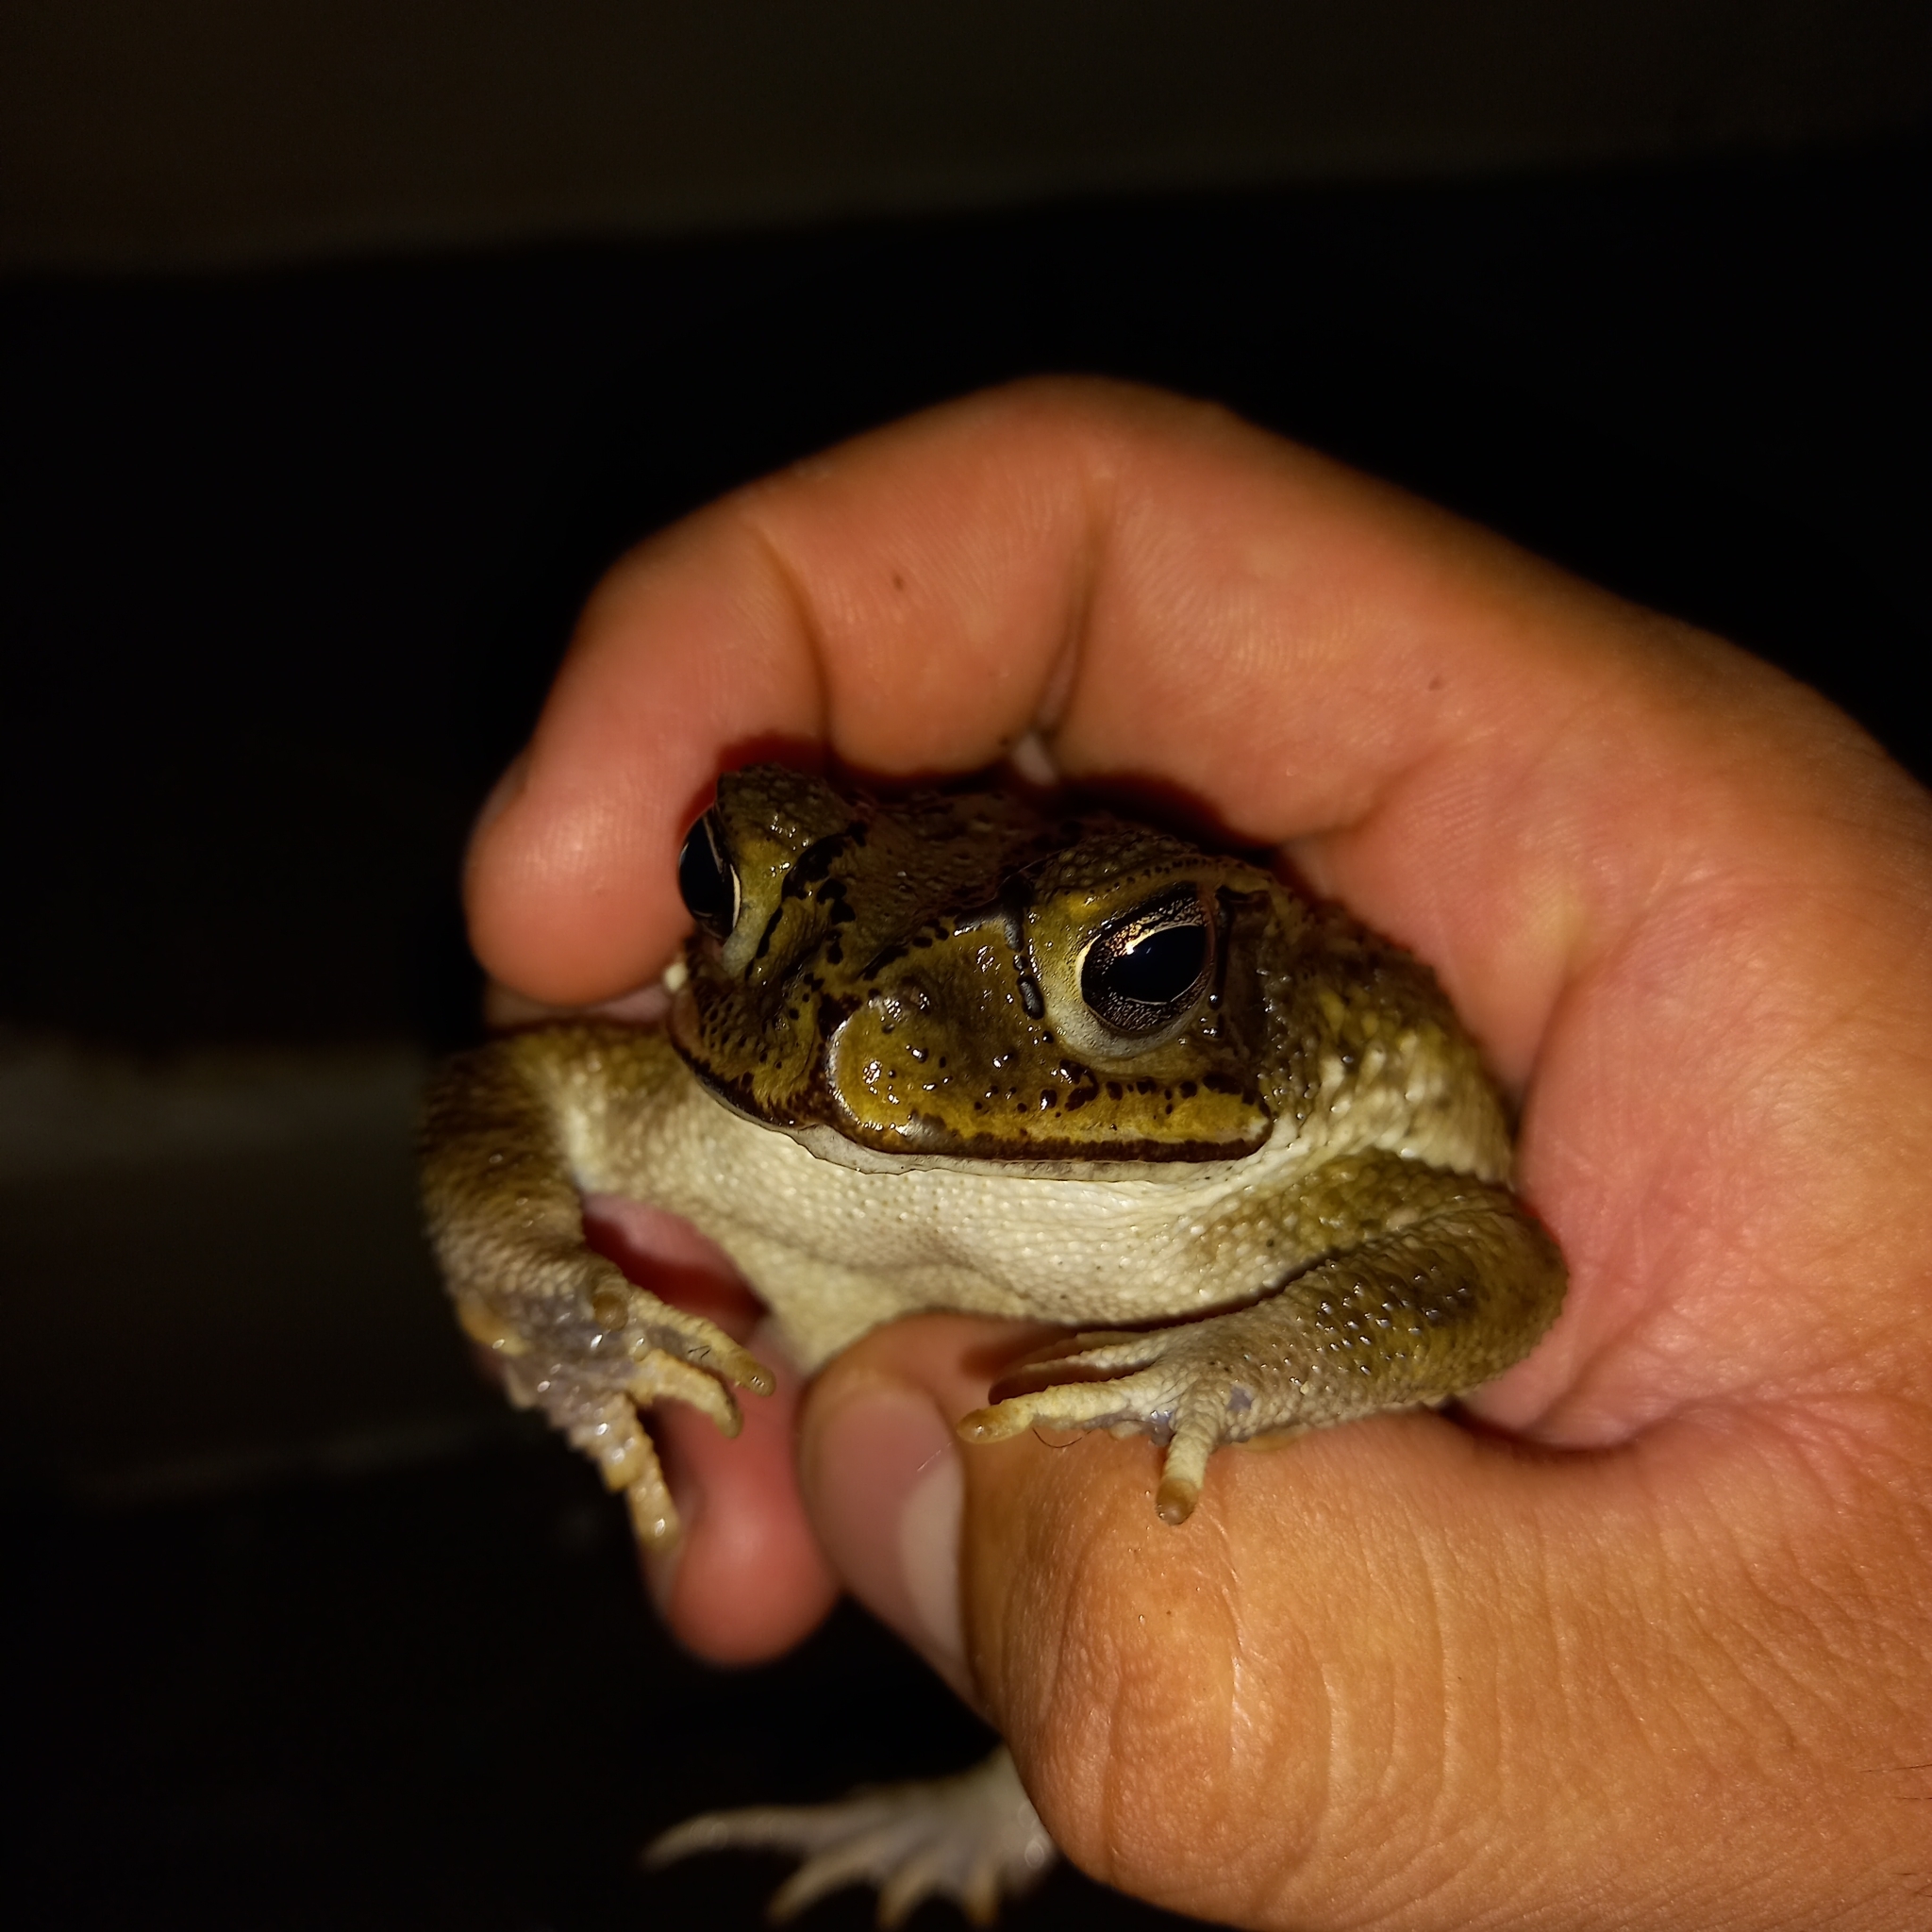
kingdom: Animalia
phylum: Chordata
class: Amphibia
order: Anura
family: Bufonidae
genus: Incilius
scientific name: Incilius luetkenii
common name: Yellow toad
